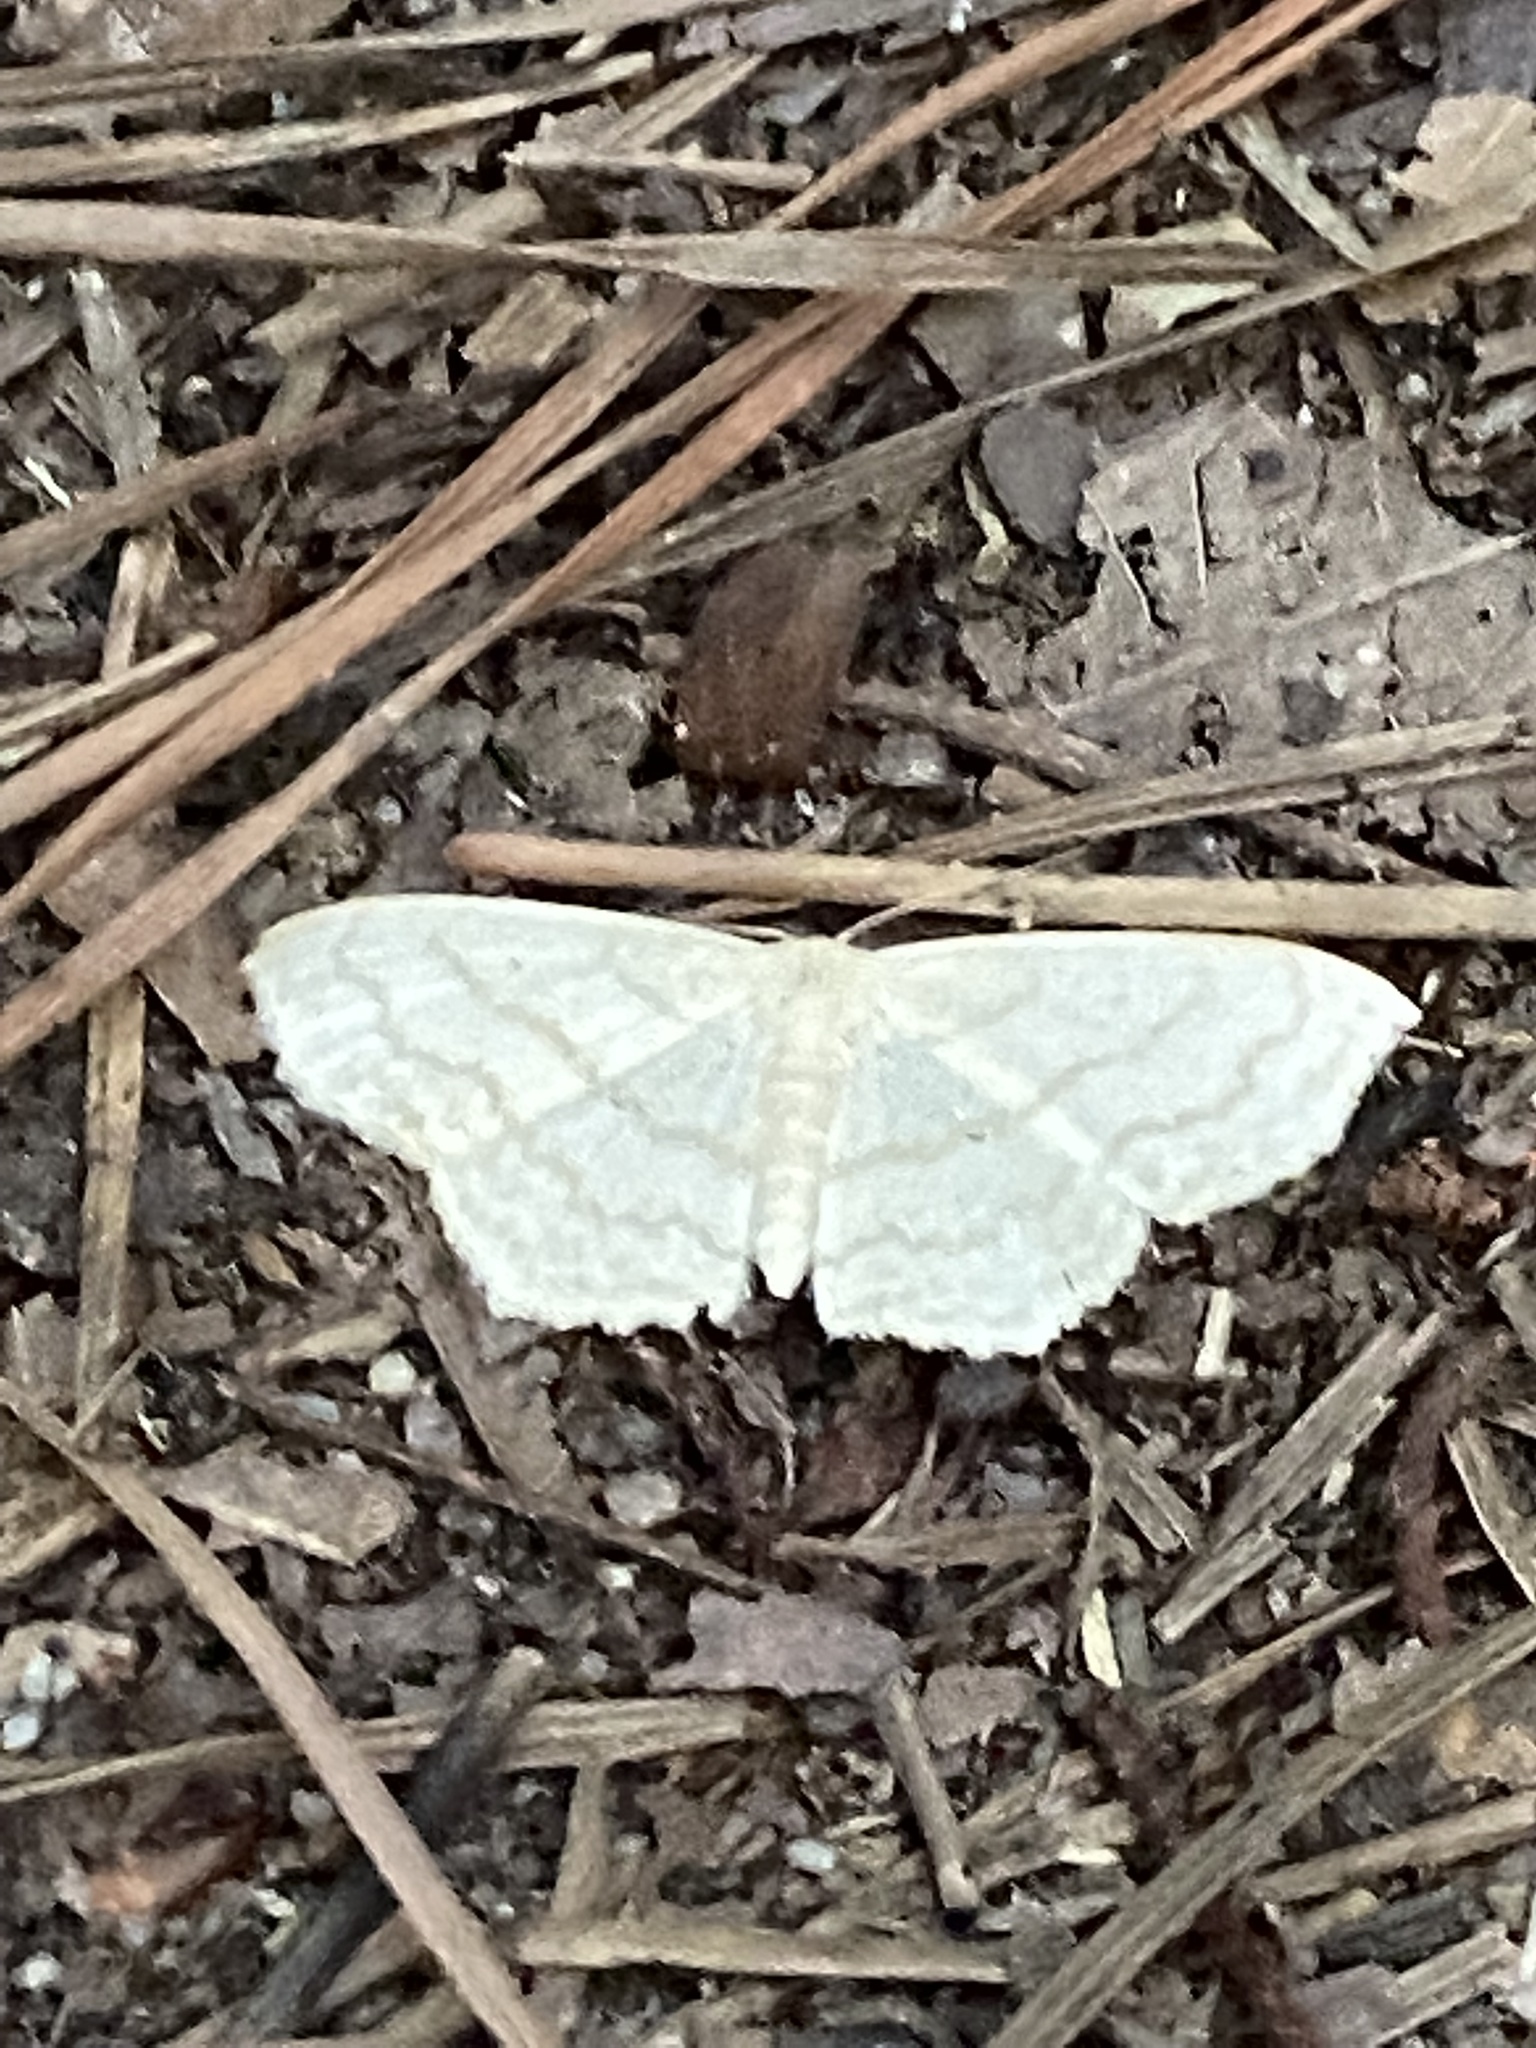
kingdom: Animalia
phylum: Arthropoda
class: Insecta
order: Lepidoptera
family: Geometridae
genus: Scopula
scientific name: Scopula limboundata
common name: Large lace border
